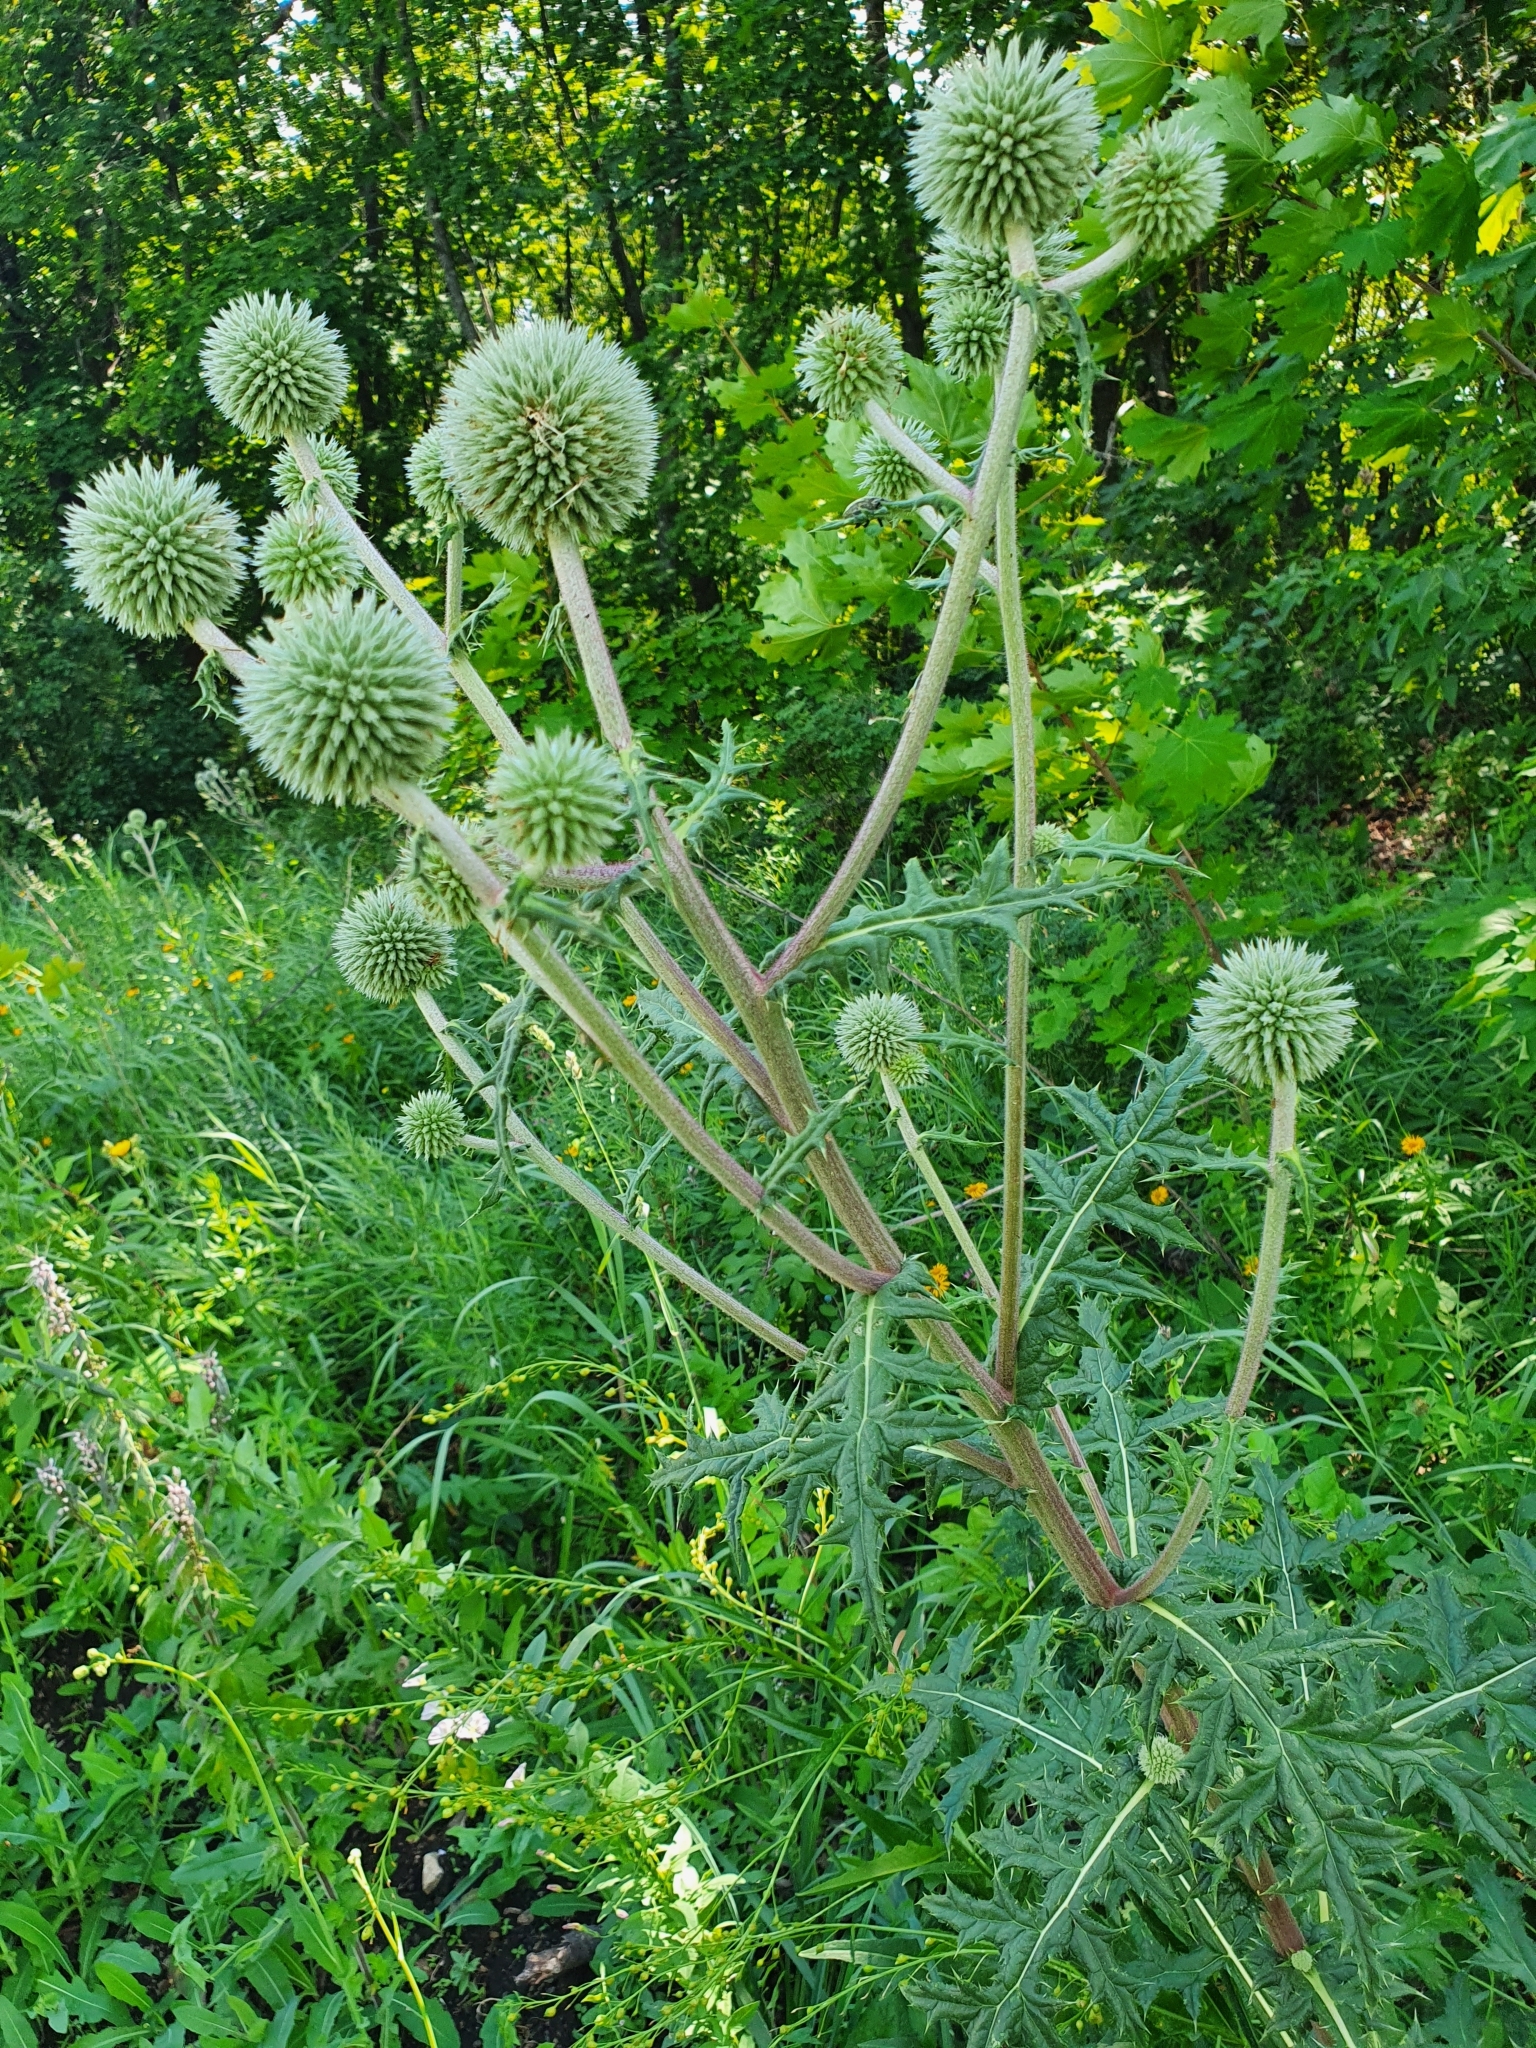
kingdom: Plantae
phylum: Tracheophyta
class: Magnoliopsida
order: Asterales
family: Asteraceae
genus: Echinops
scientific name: Echinops sphaerocephalus
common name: Glandular globe-thistle
